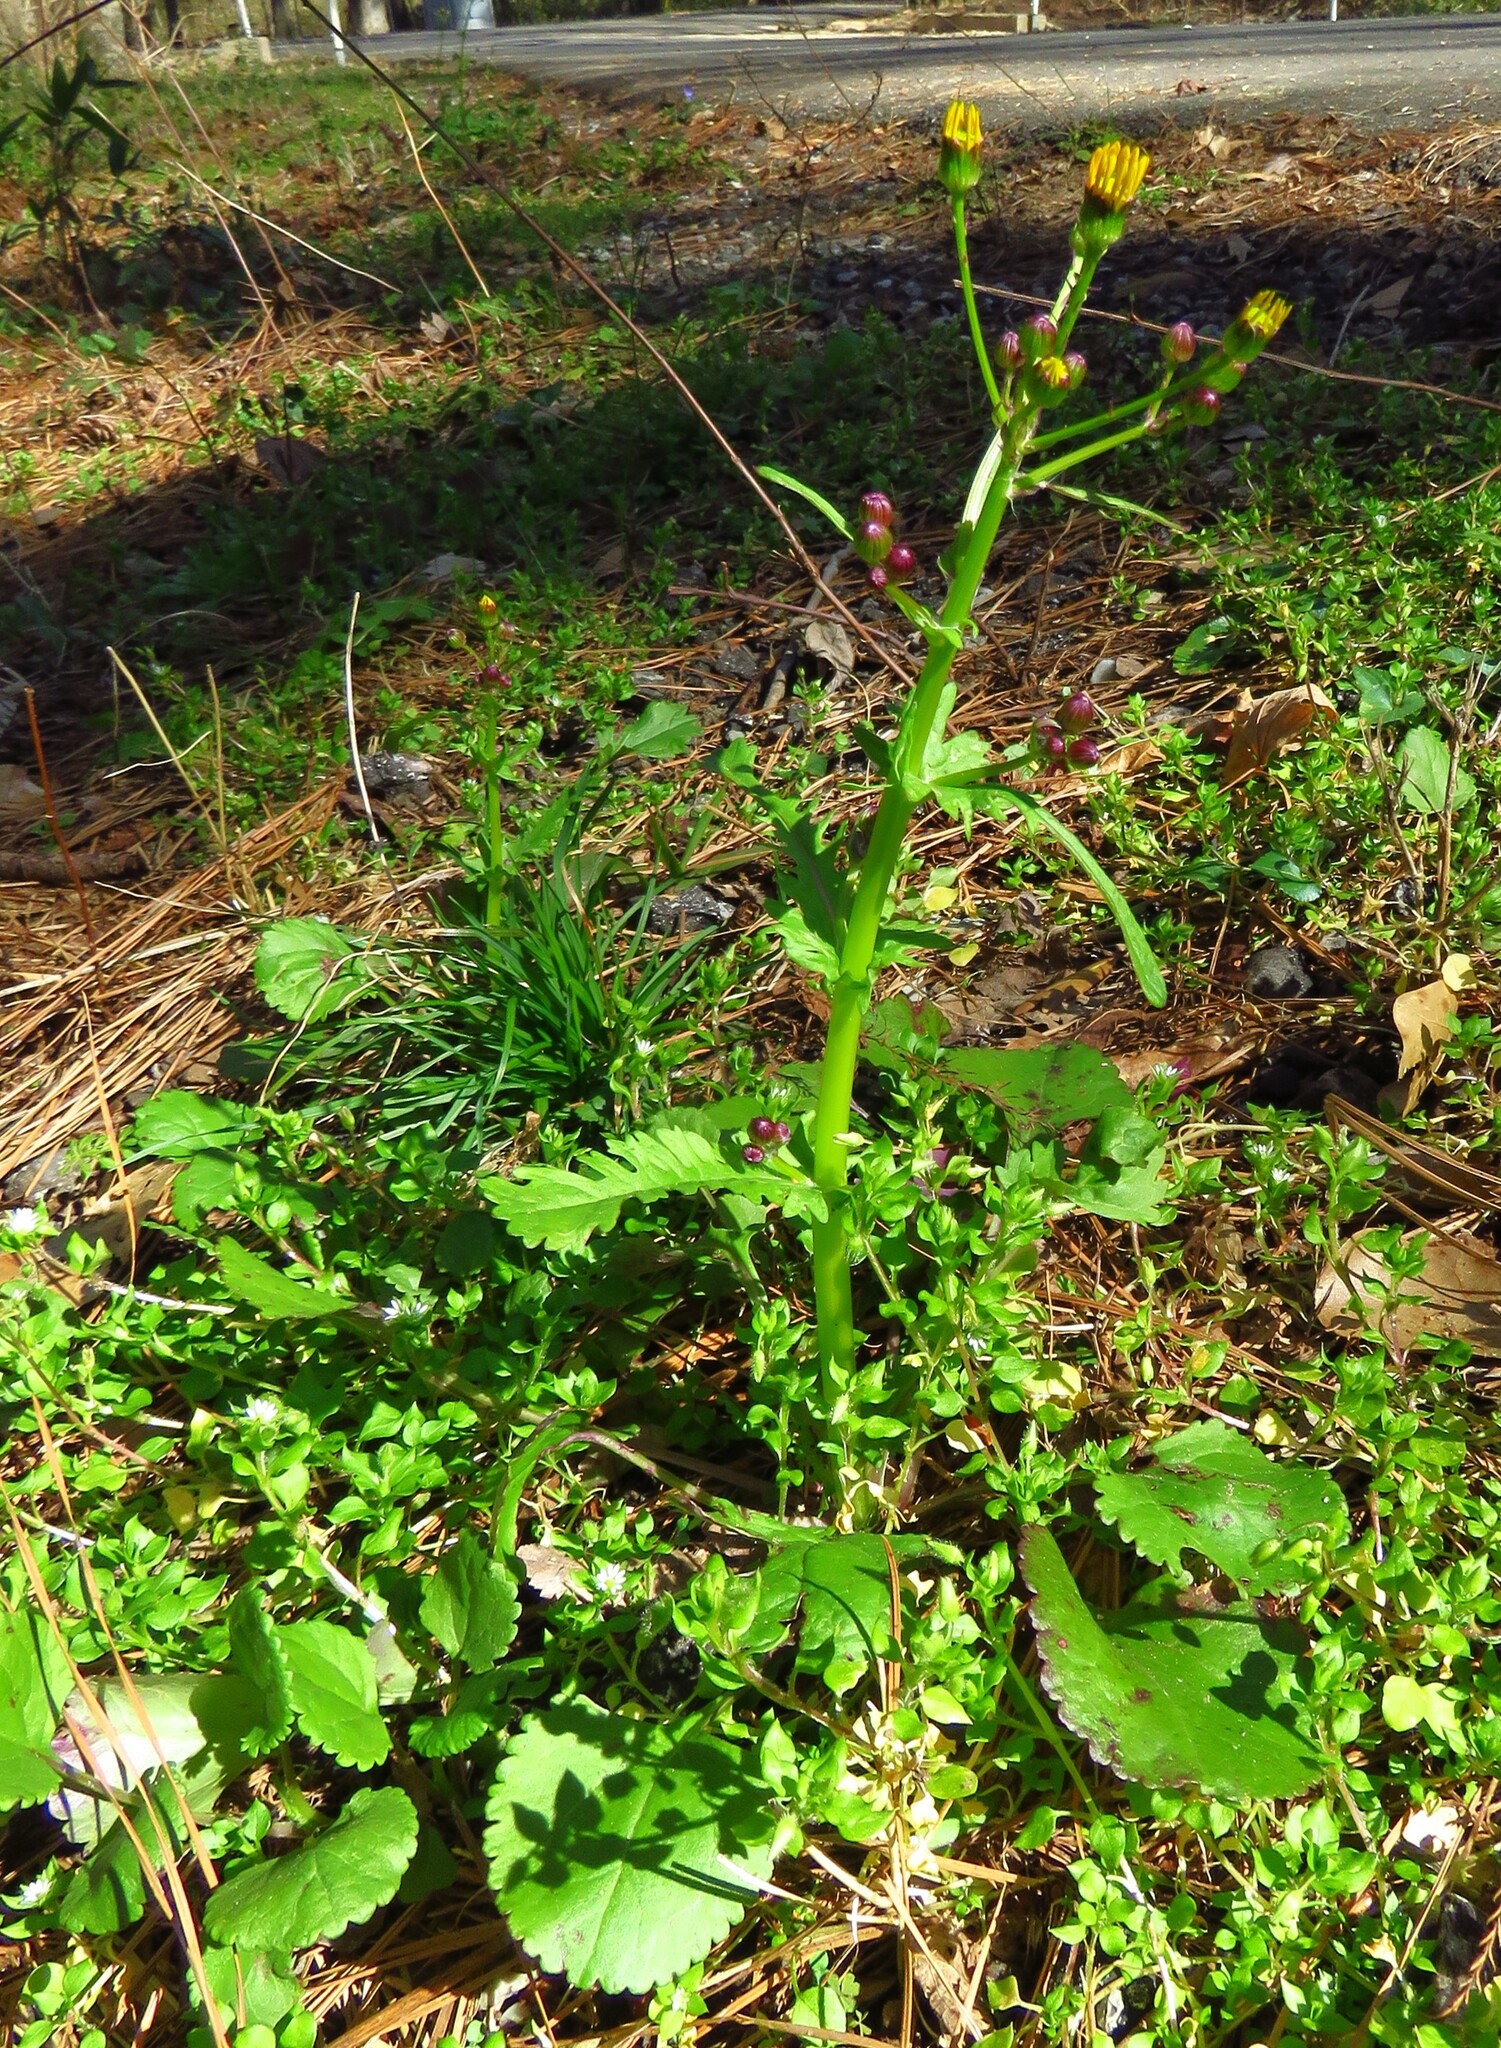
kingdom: Plantae
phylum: Tracheophyta
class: Magnoliopsida
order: Asterales
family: Asteraceae
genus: Packera
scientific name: Packera obovata
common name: Round-leaf ragwort
